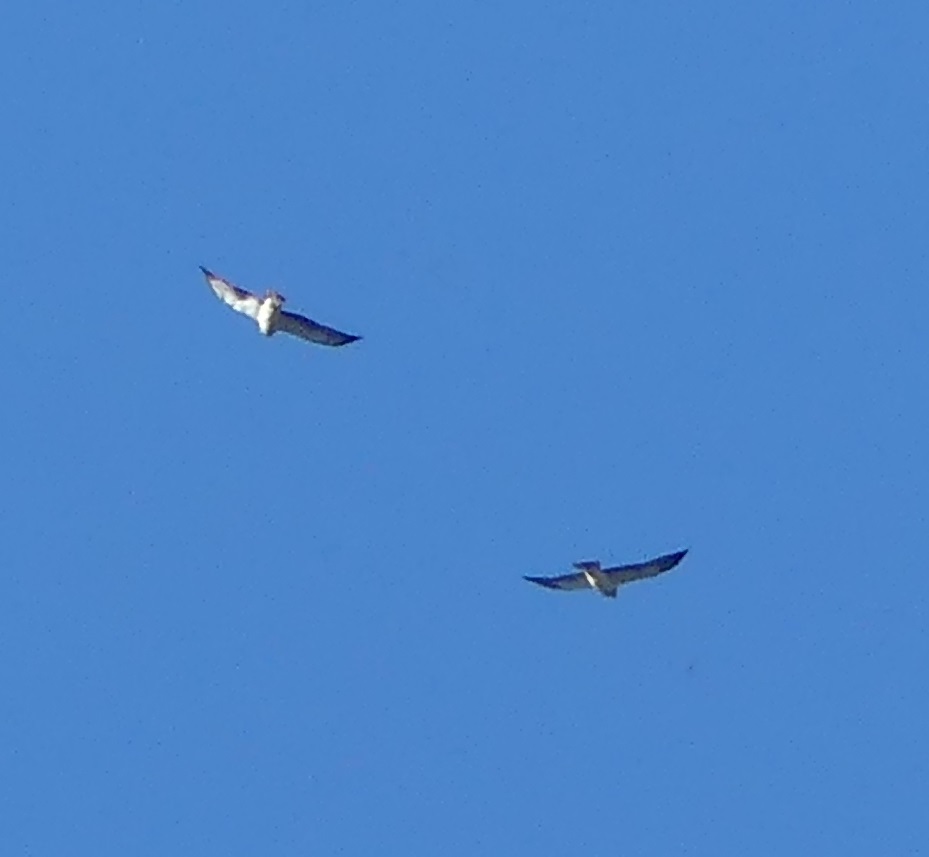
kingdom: Animalia
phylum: Chordata
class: Aves
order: Accipitriformes
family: Accipitridae
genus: Buteo
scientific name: Buteo swainsoni
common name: Swainson's hawk
